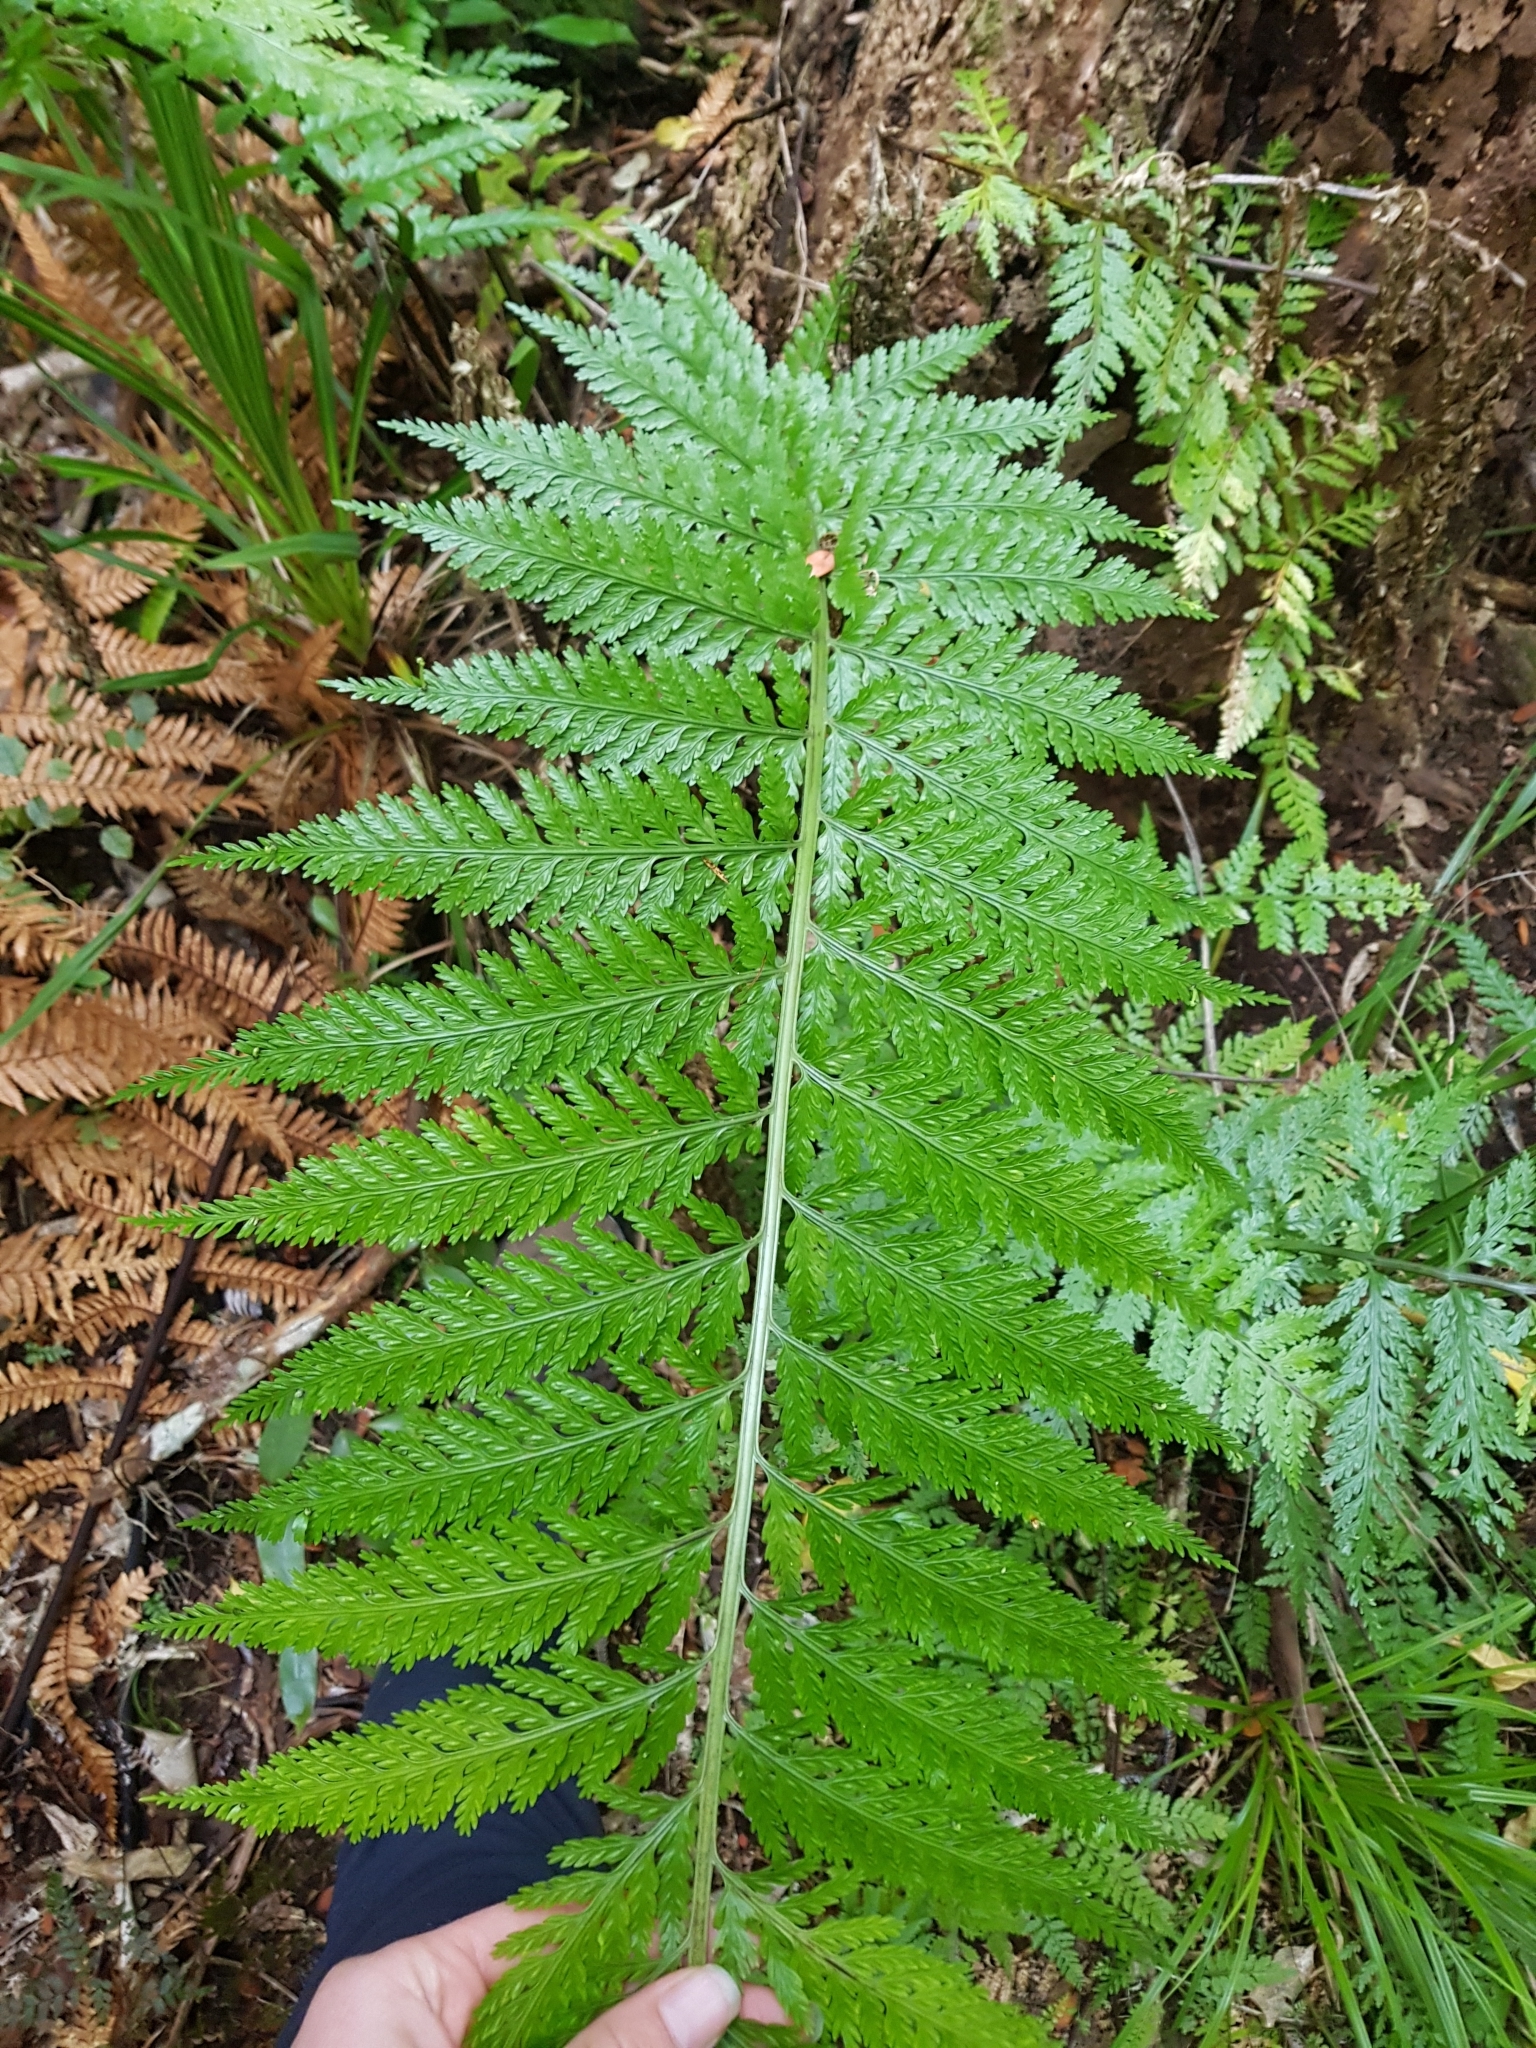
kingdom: Plantae
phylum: Tracheophyta
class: Polypodiopsida
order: Polypodiales
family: Aspleniaceae
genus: Asplenium
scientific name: Asplenium bulbiferum
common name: Mother fern
